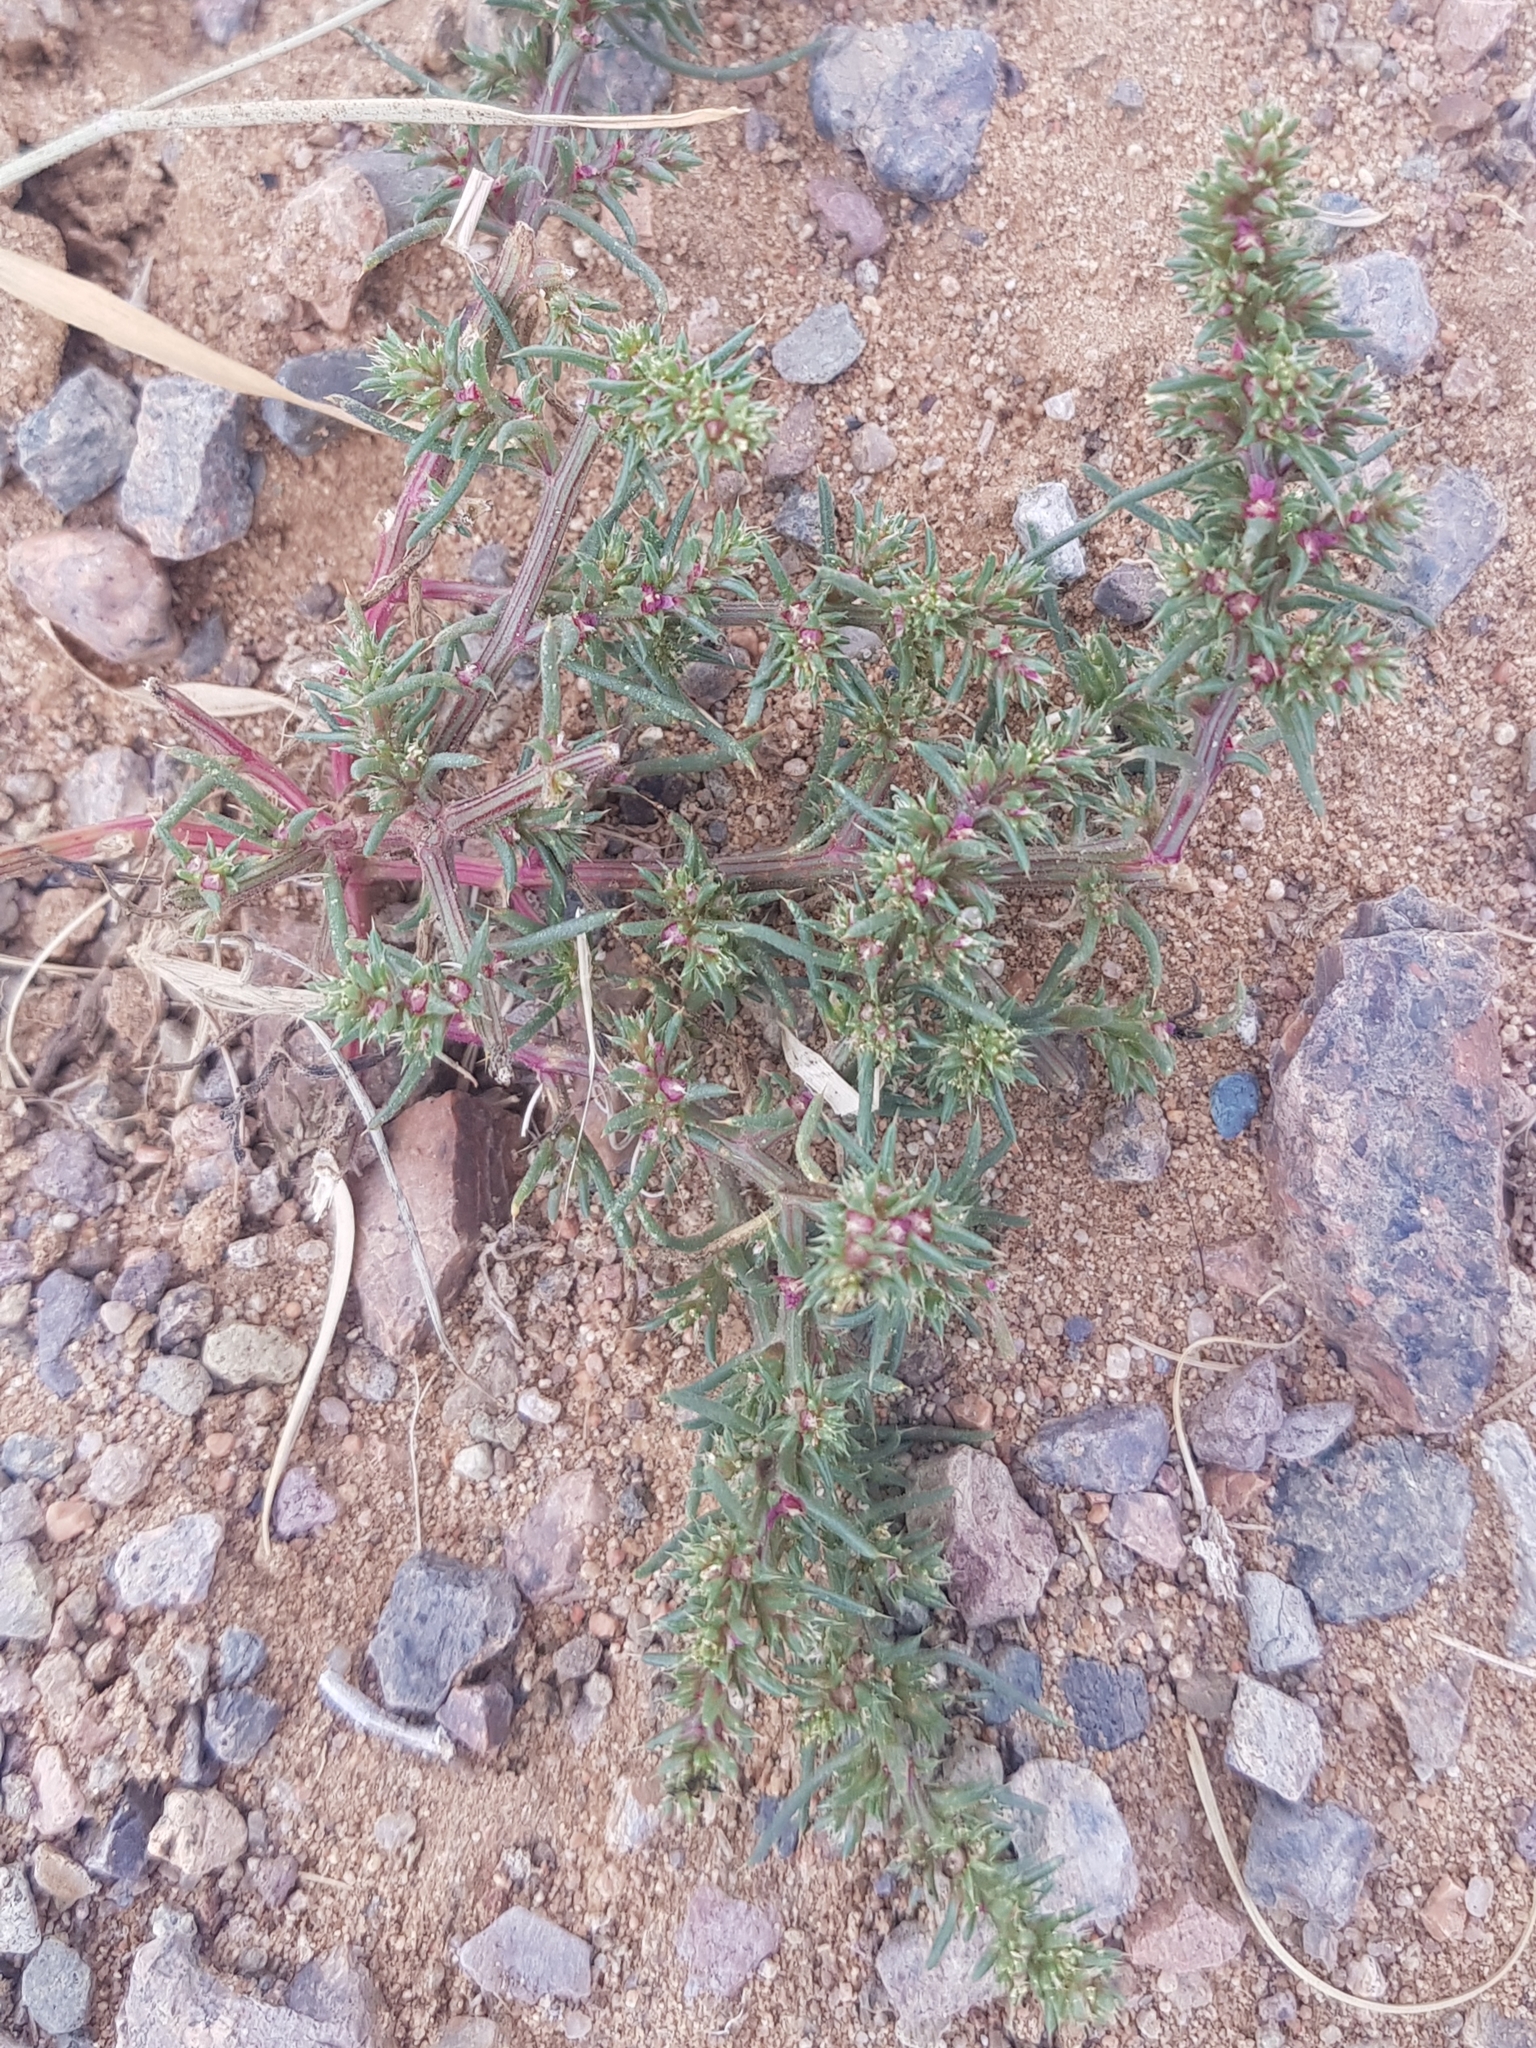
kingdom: Plantae
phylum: Tracheophyta
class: Magnoliopsida
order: Caryophyllales
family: Amaranthaceae
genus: Salsola
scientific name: Salsola tragus
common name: Prickly russian thistle
